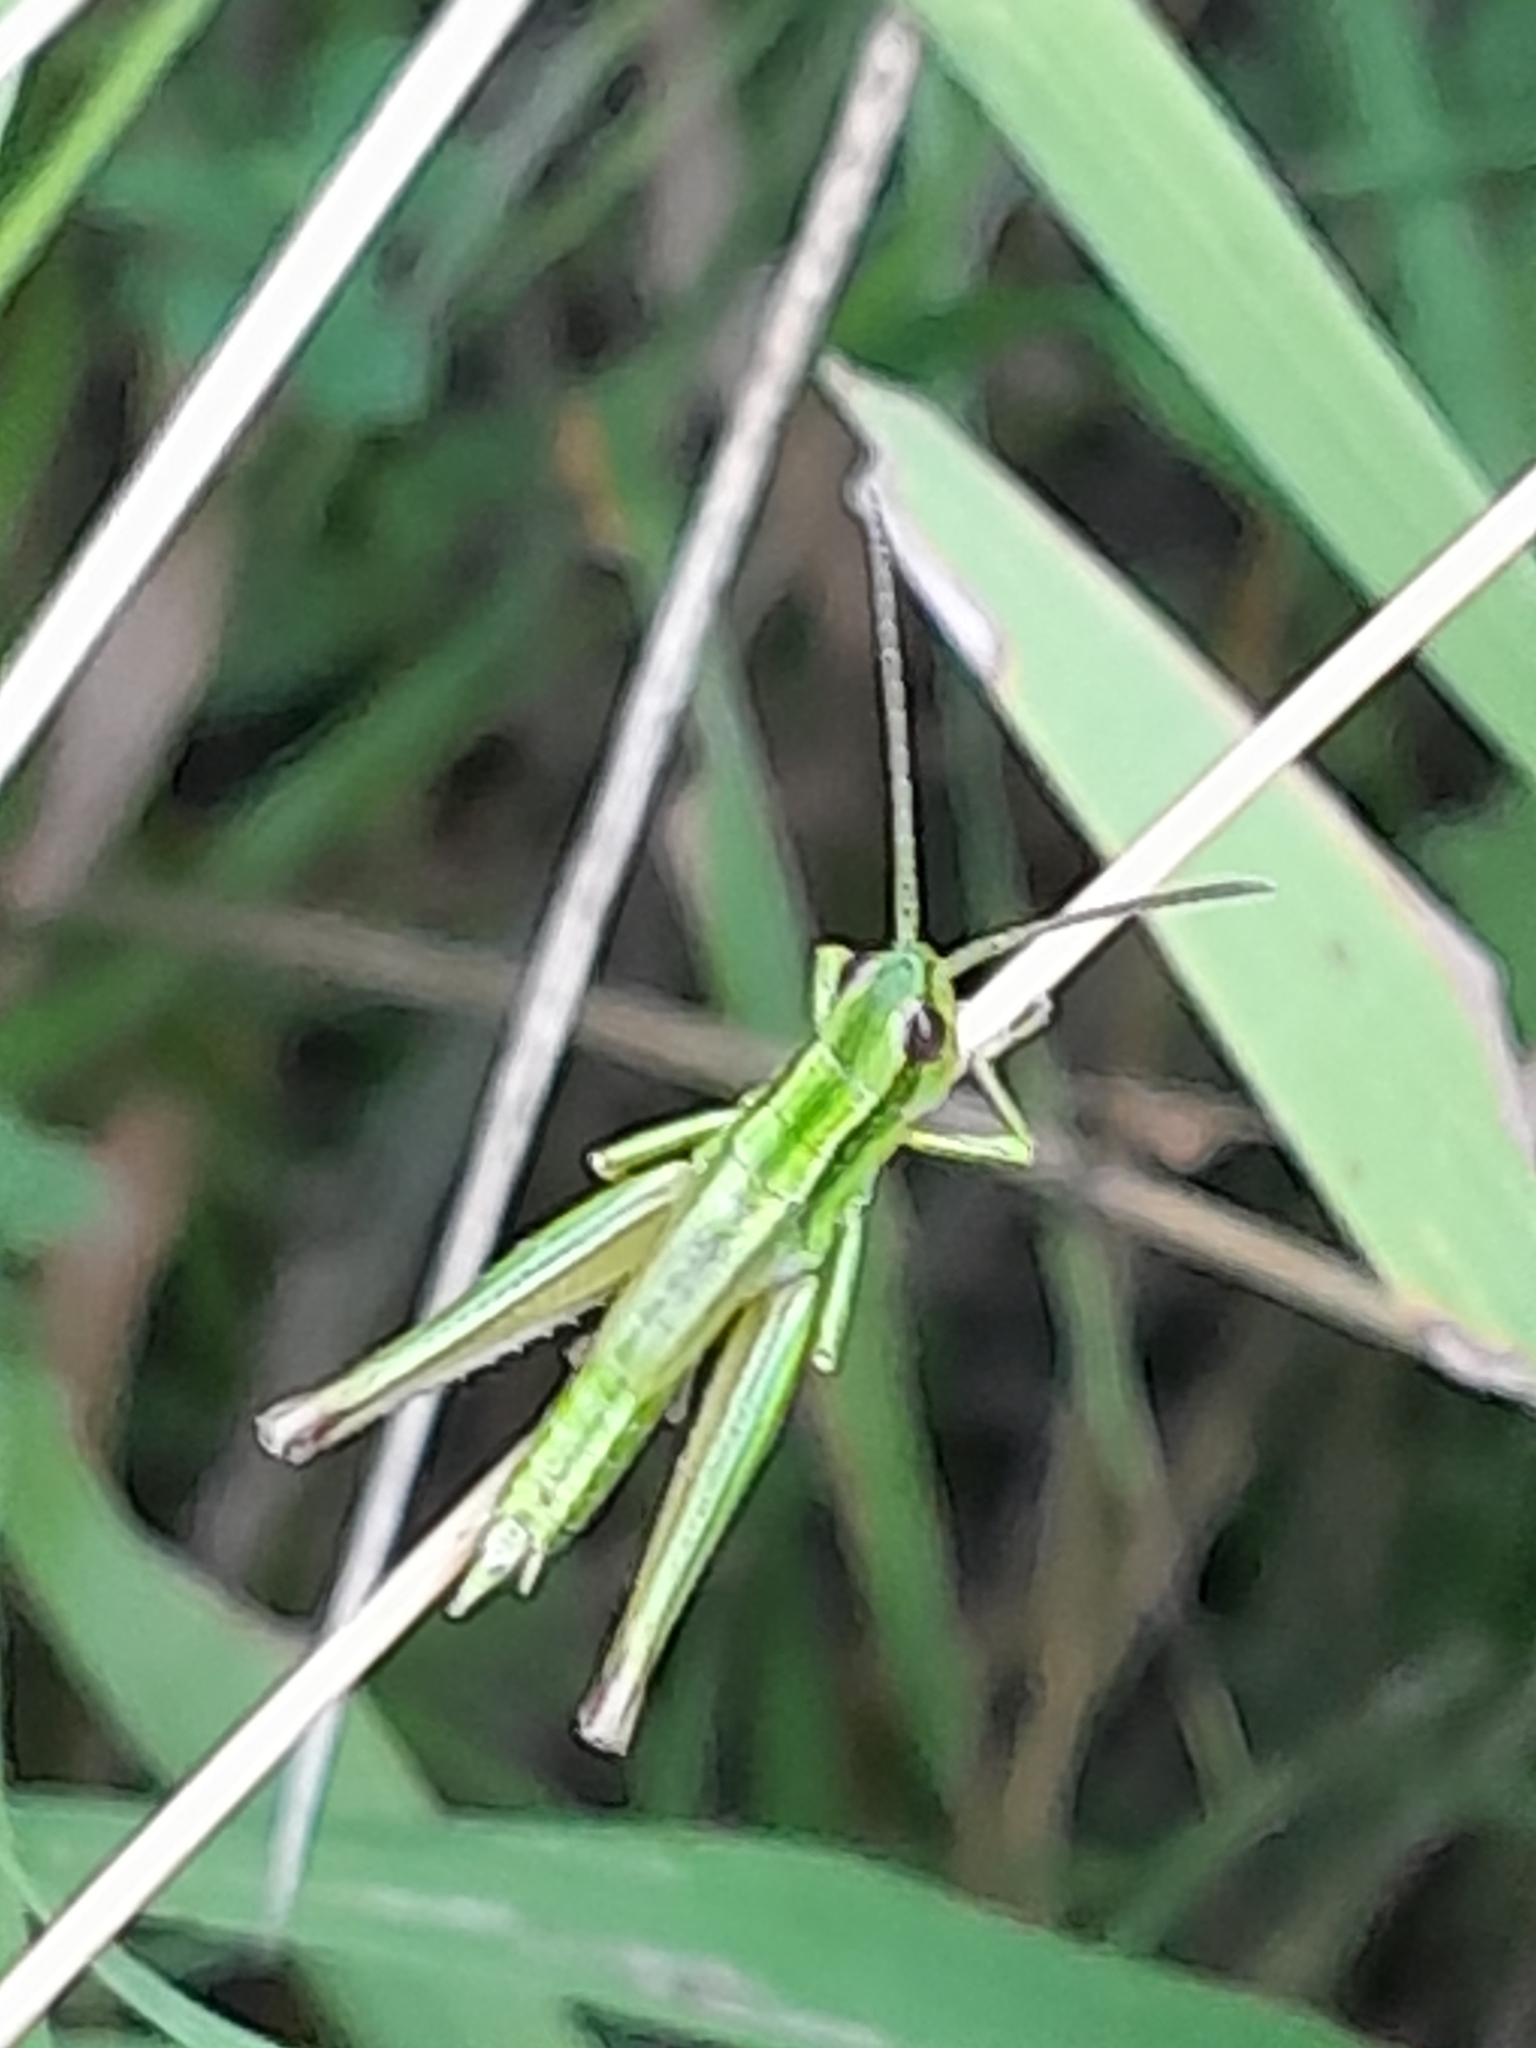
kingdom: Animalia
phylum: Arthropoda
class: Insecta
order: Orthoptera
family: Acrididae
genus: Euthystira
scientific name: Euthystira brachyptera
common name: Small gold grasshopper
